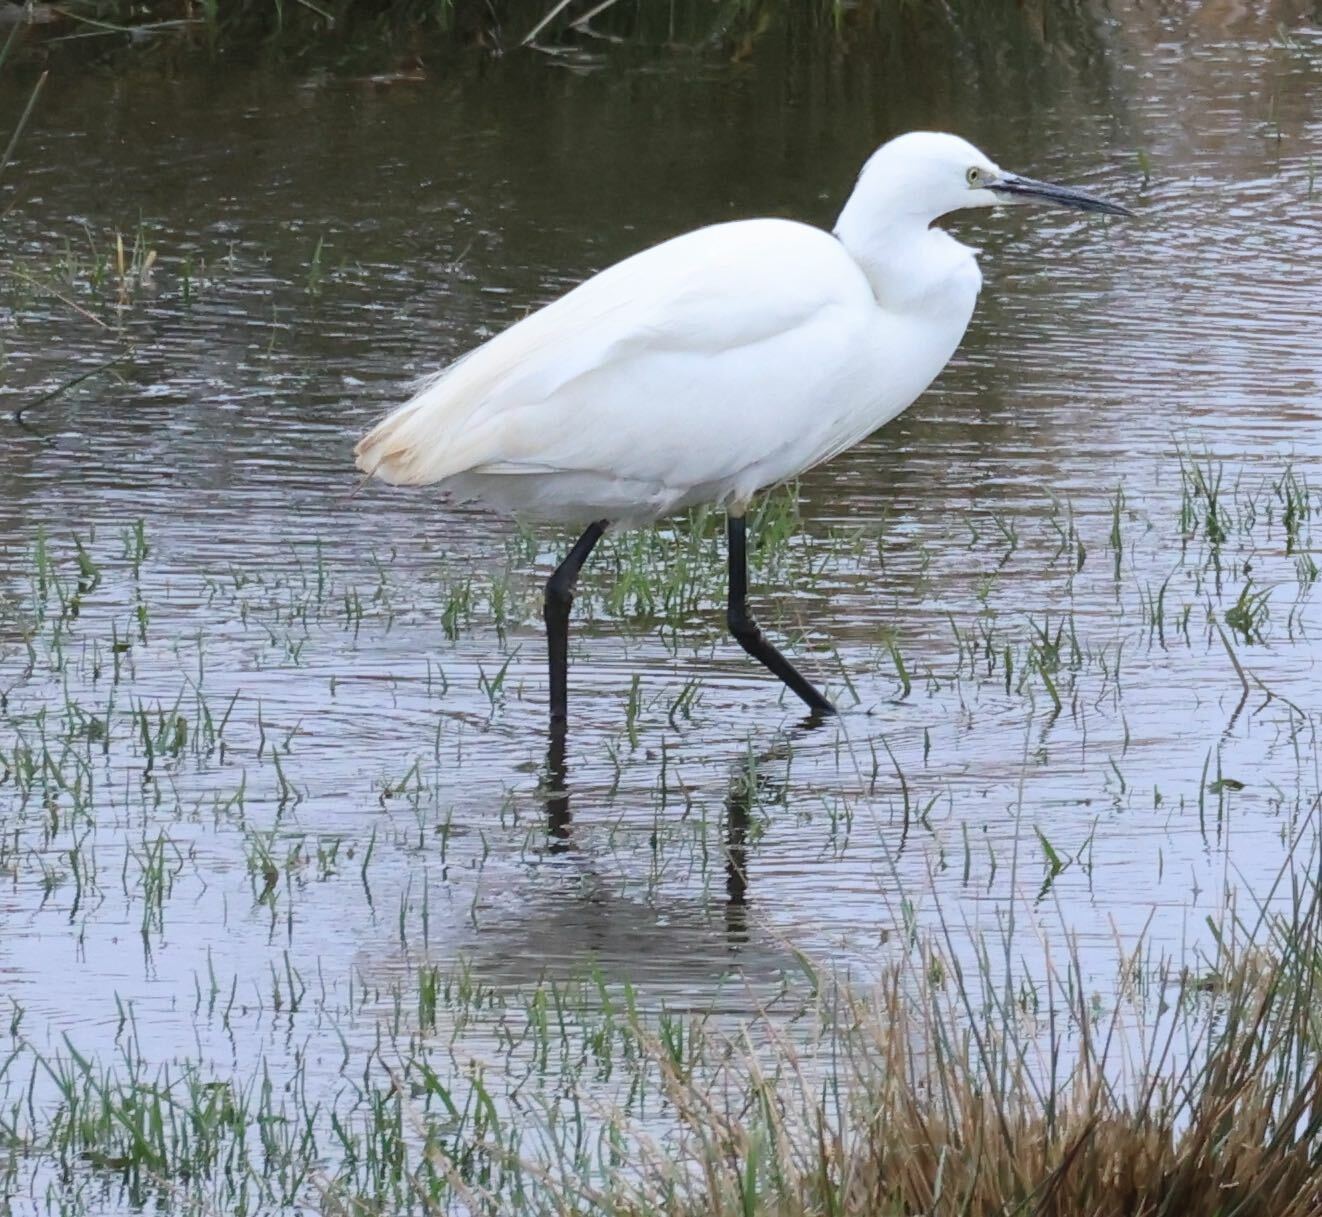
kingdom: Animalia
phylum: Chordata
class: Aves
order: Pelecaniformes
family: Ardeidae
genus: Egretta
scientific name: Egretta garzetta
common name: Little egret
